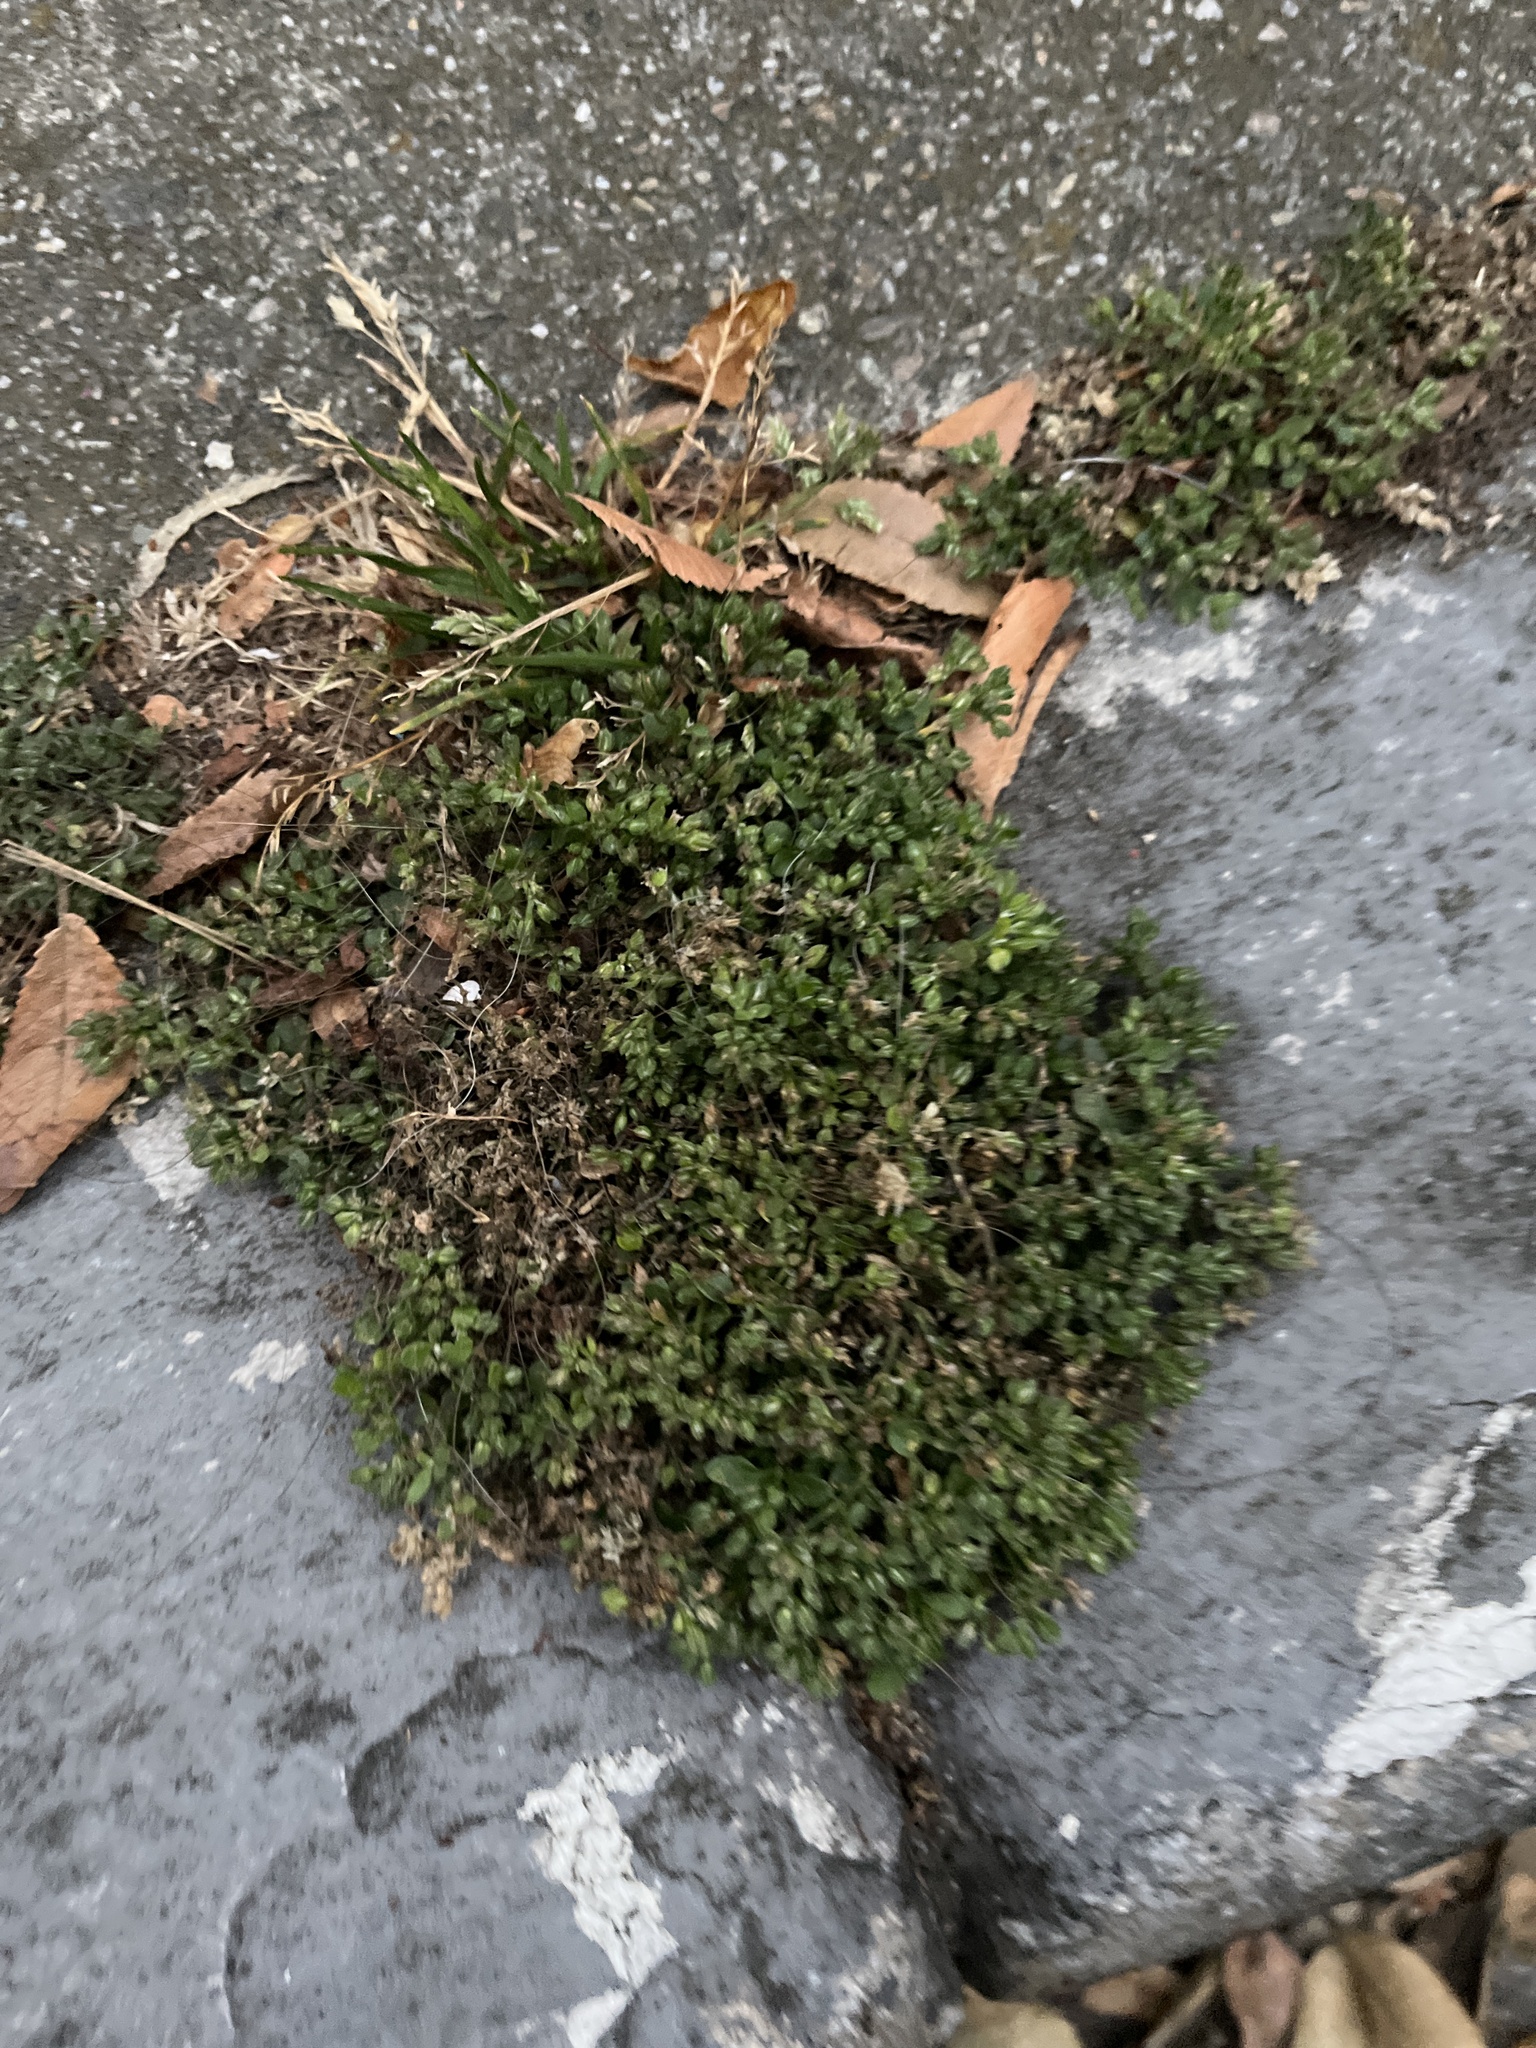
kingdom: Plantae
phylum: Tracheophyta
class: Magnoliopsida
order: Caryophyllales
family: Caryophyllaceae
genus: Polycarpon
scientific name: Polycarpon tetraphyllum
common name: Four-leaved all-seed
